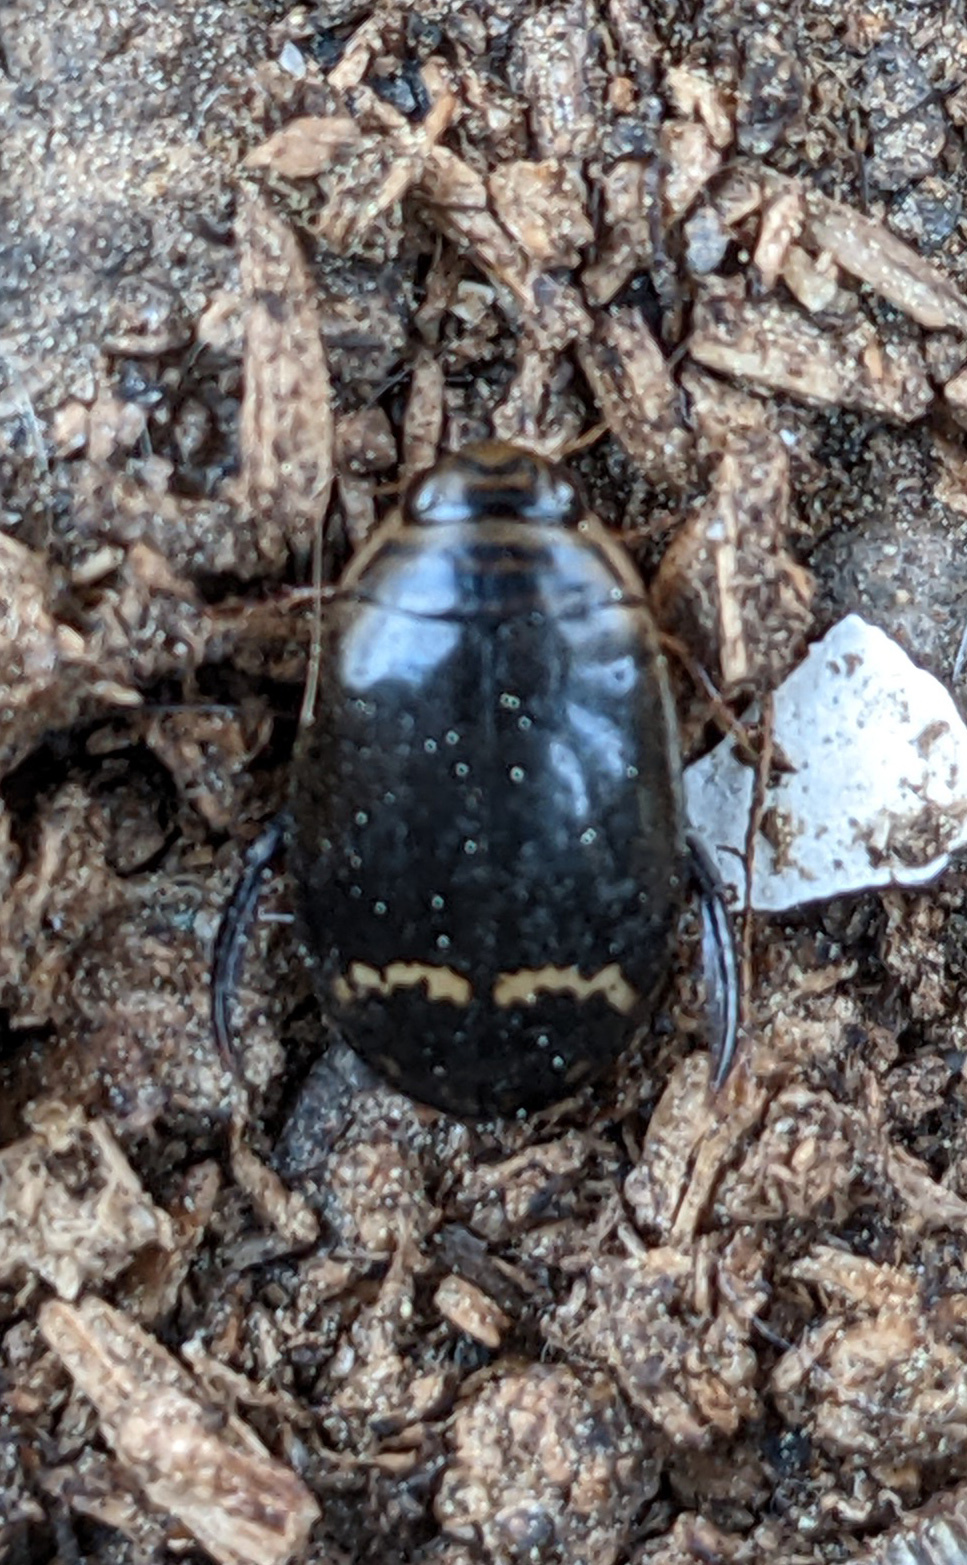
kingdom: Animalia
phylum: Arthropoda
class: Insecta
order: Coleoptera
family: Dytiscidae
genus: Acilius
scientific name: Acilius mediatus
